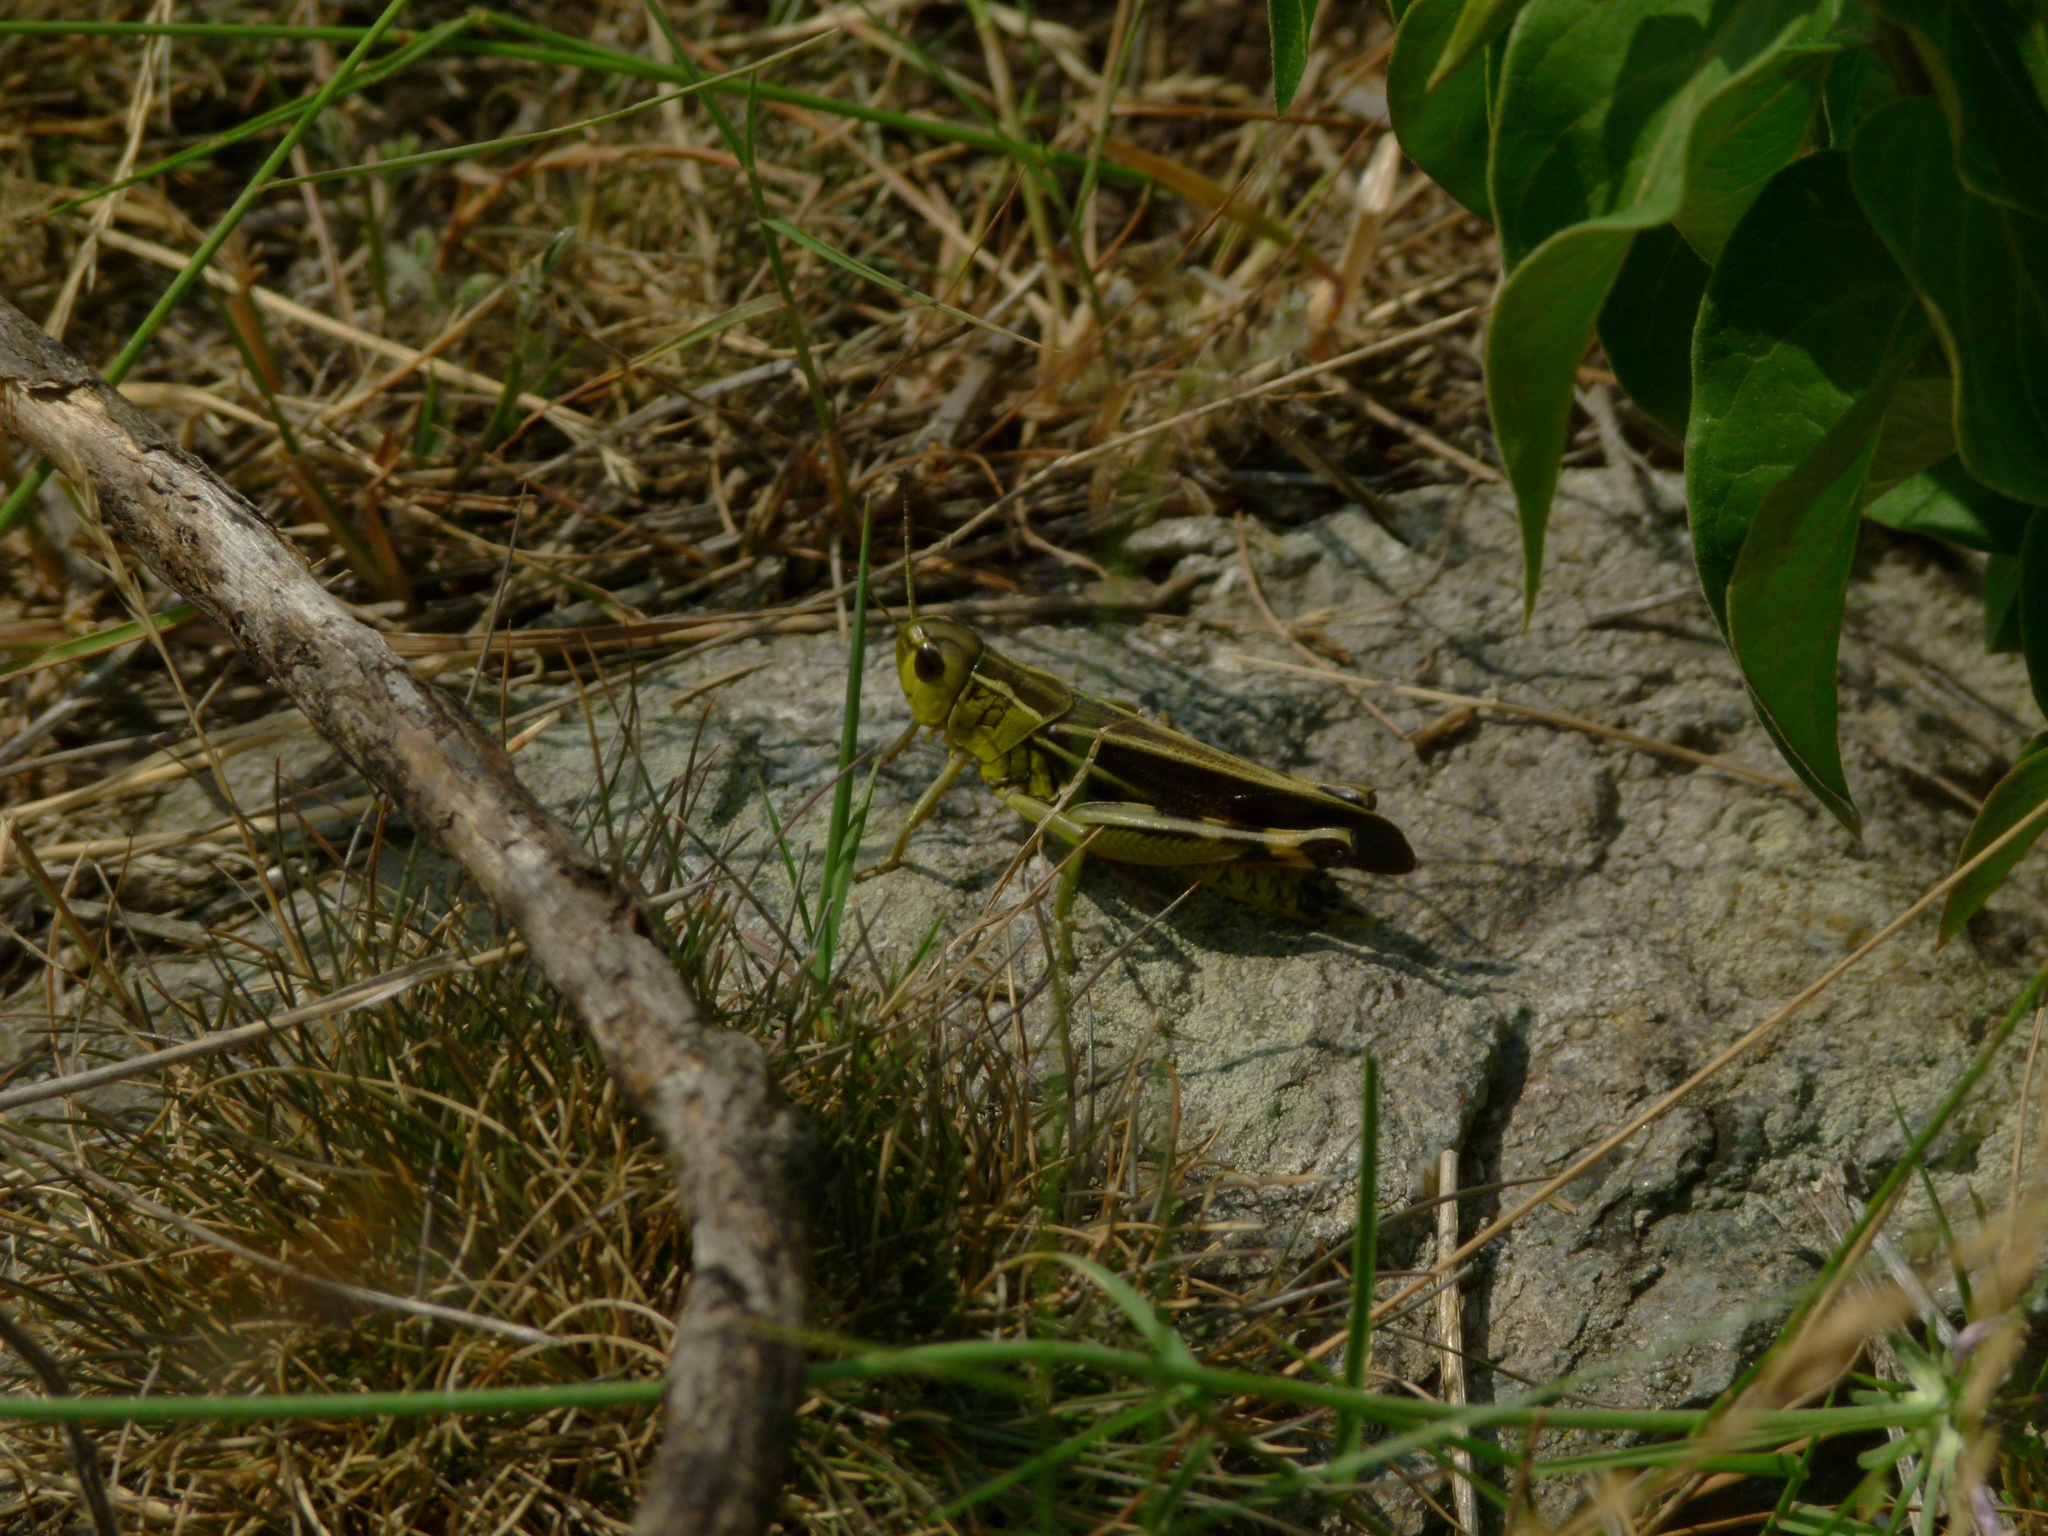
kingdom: Animalia
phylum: Arthropoda
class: Insecta
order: Orthoptera
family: Acrididae
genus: Arcyptera
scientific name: Arcyptera fusca
